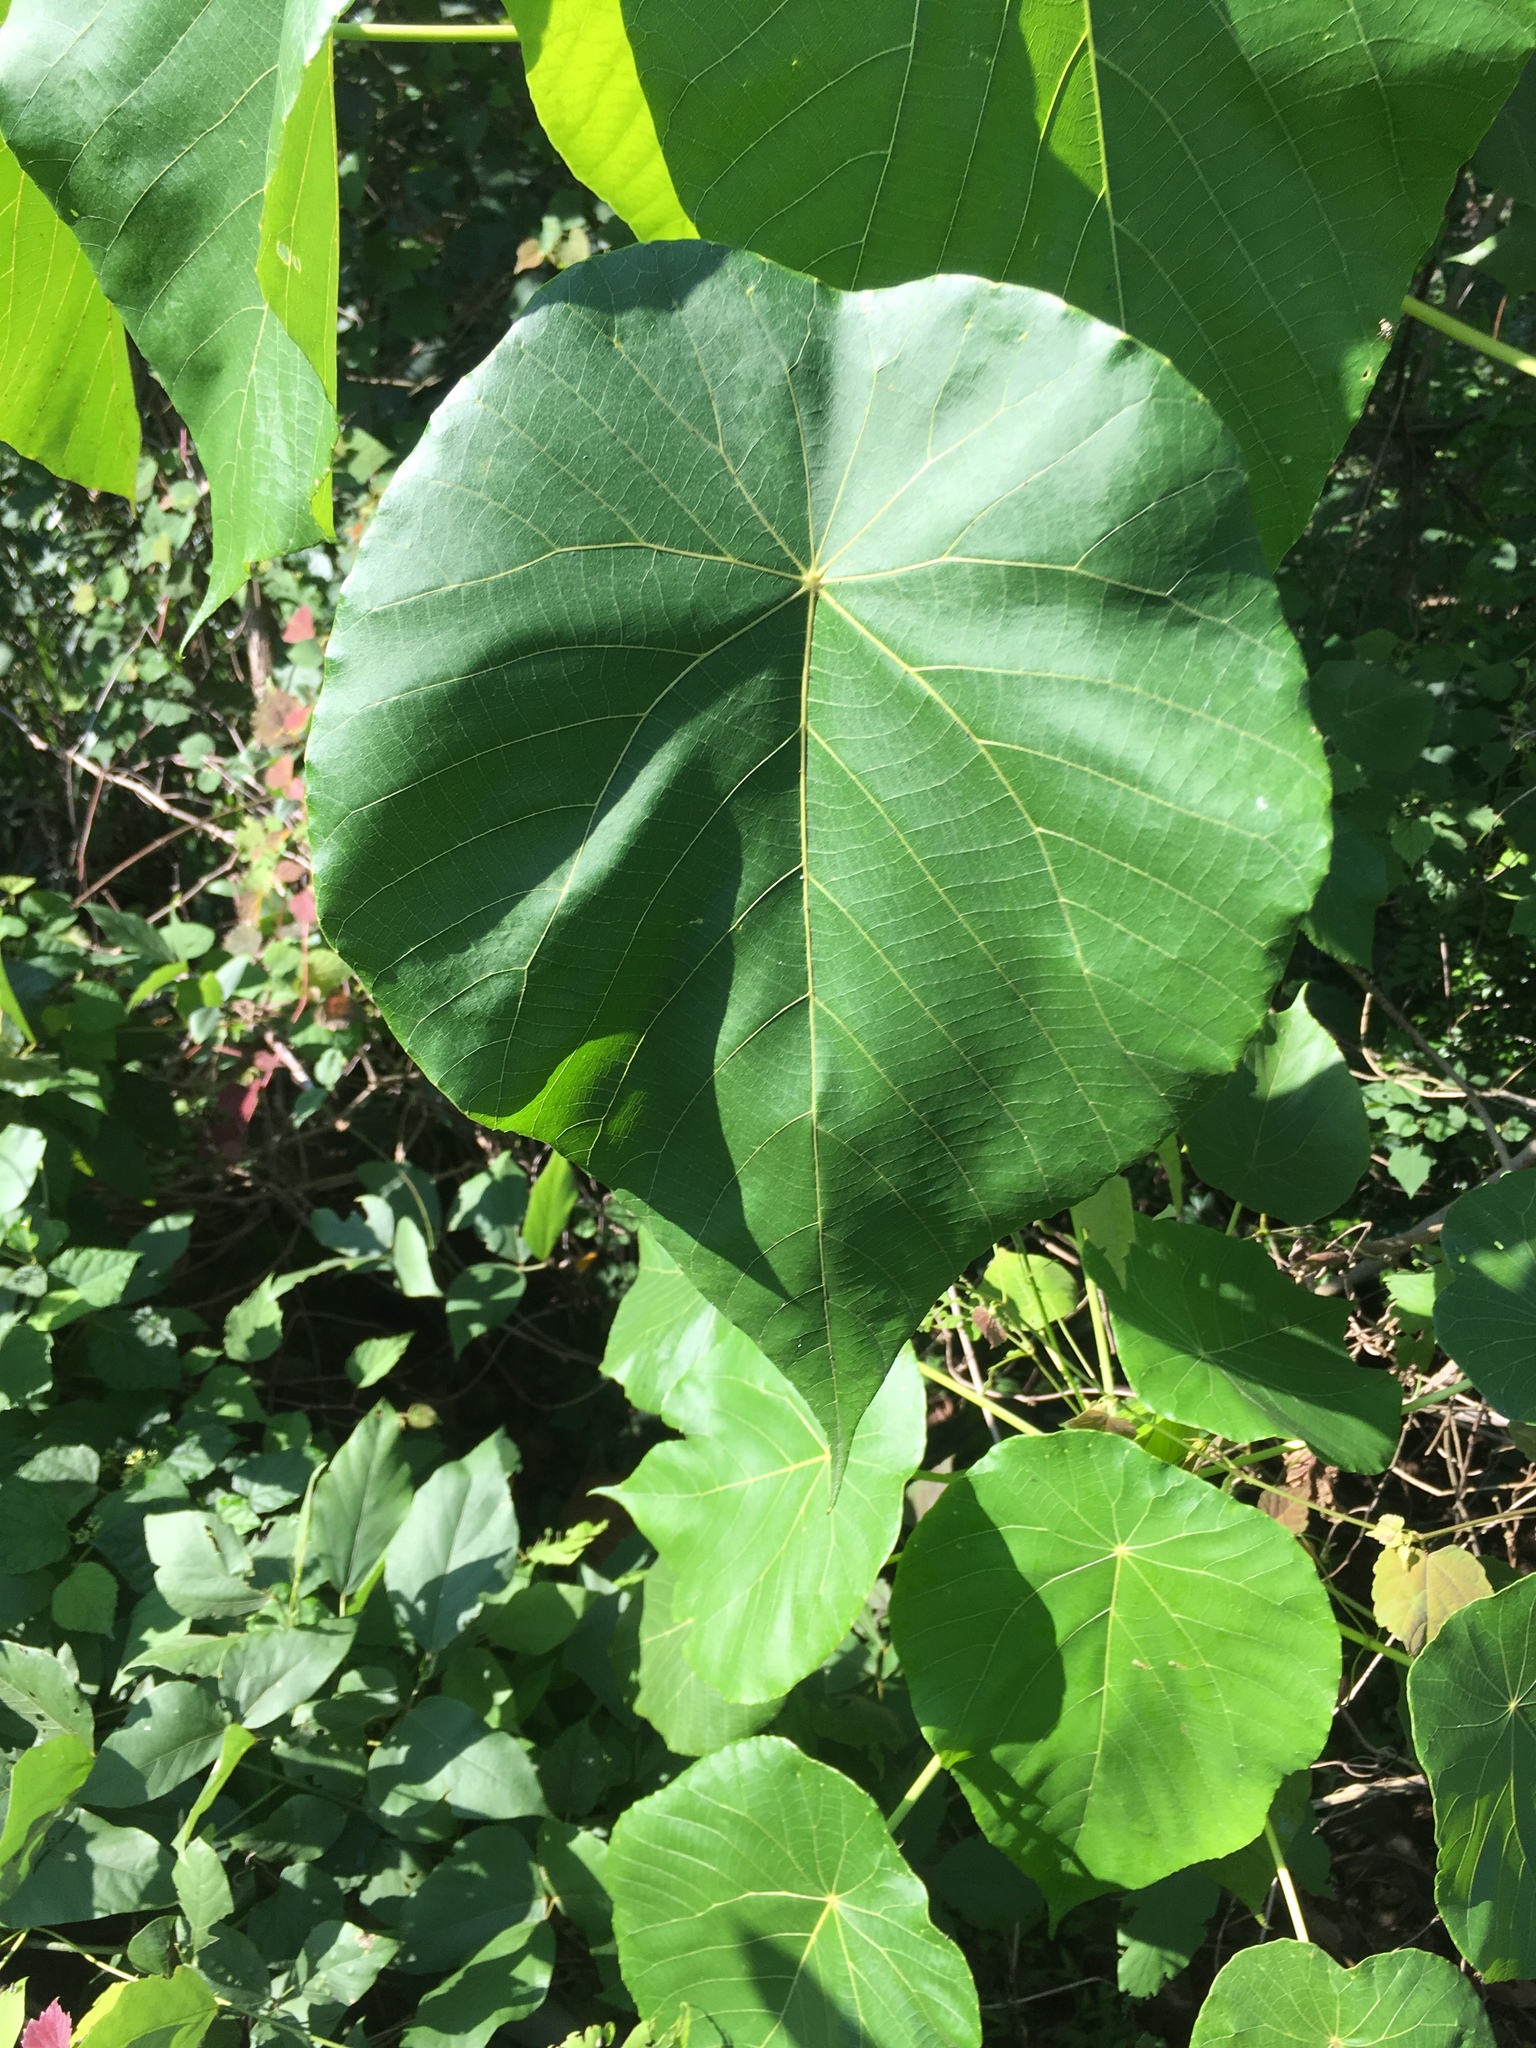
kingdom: Plantae
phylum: Tracheophyta
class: Magnoliopsida
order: Malpighiales
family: Euphorbiaceae
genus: Macaranga
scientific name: Macaranga tanarius
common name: Parasol leaf tree
